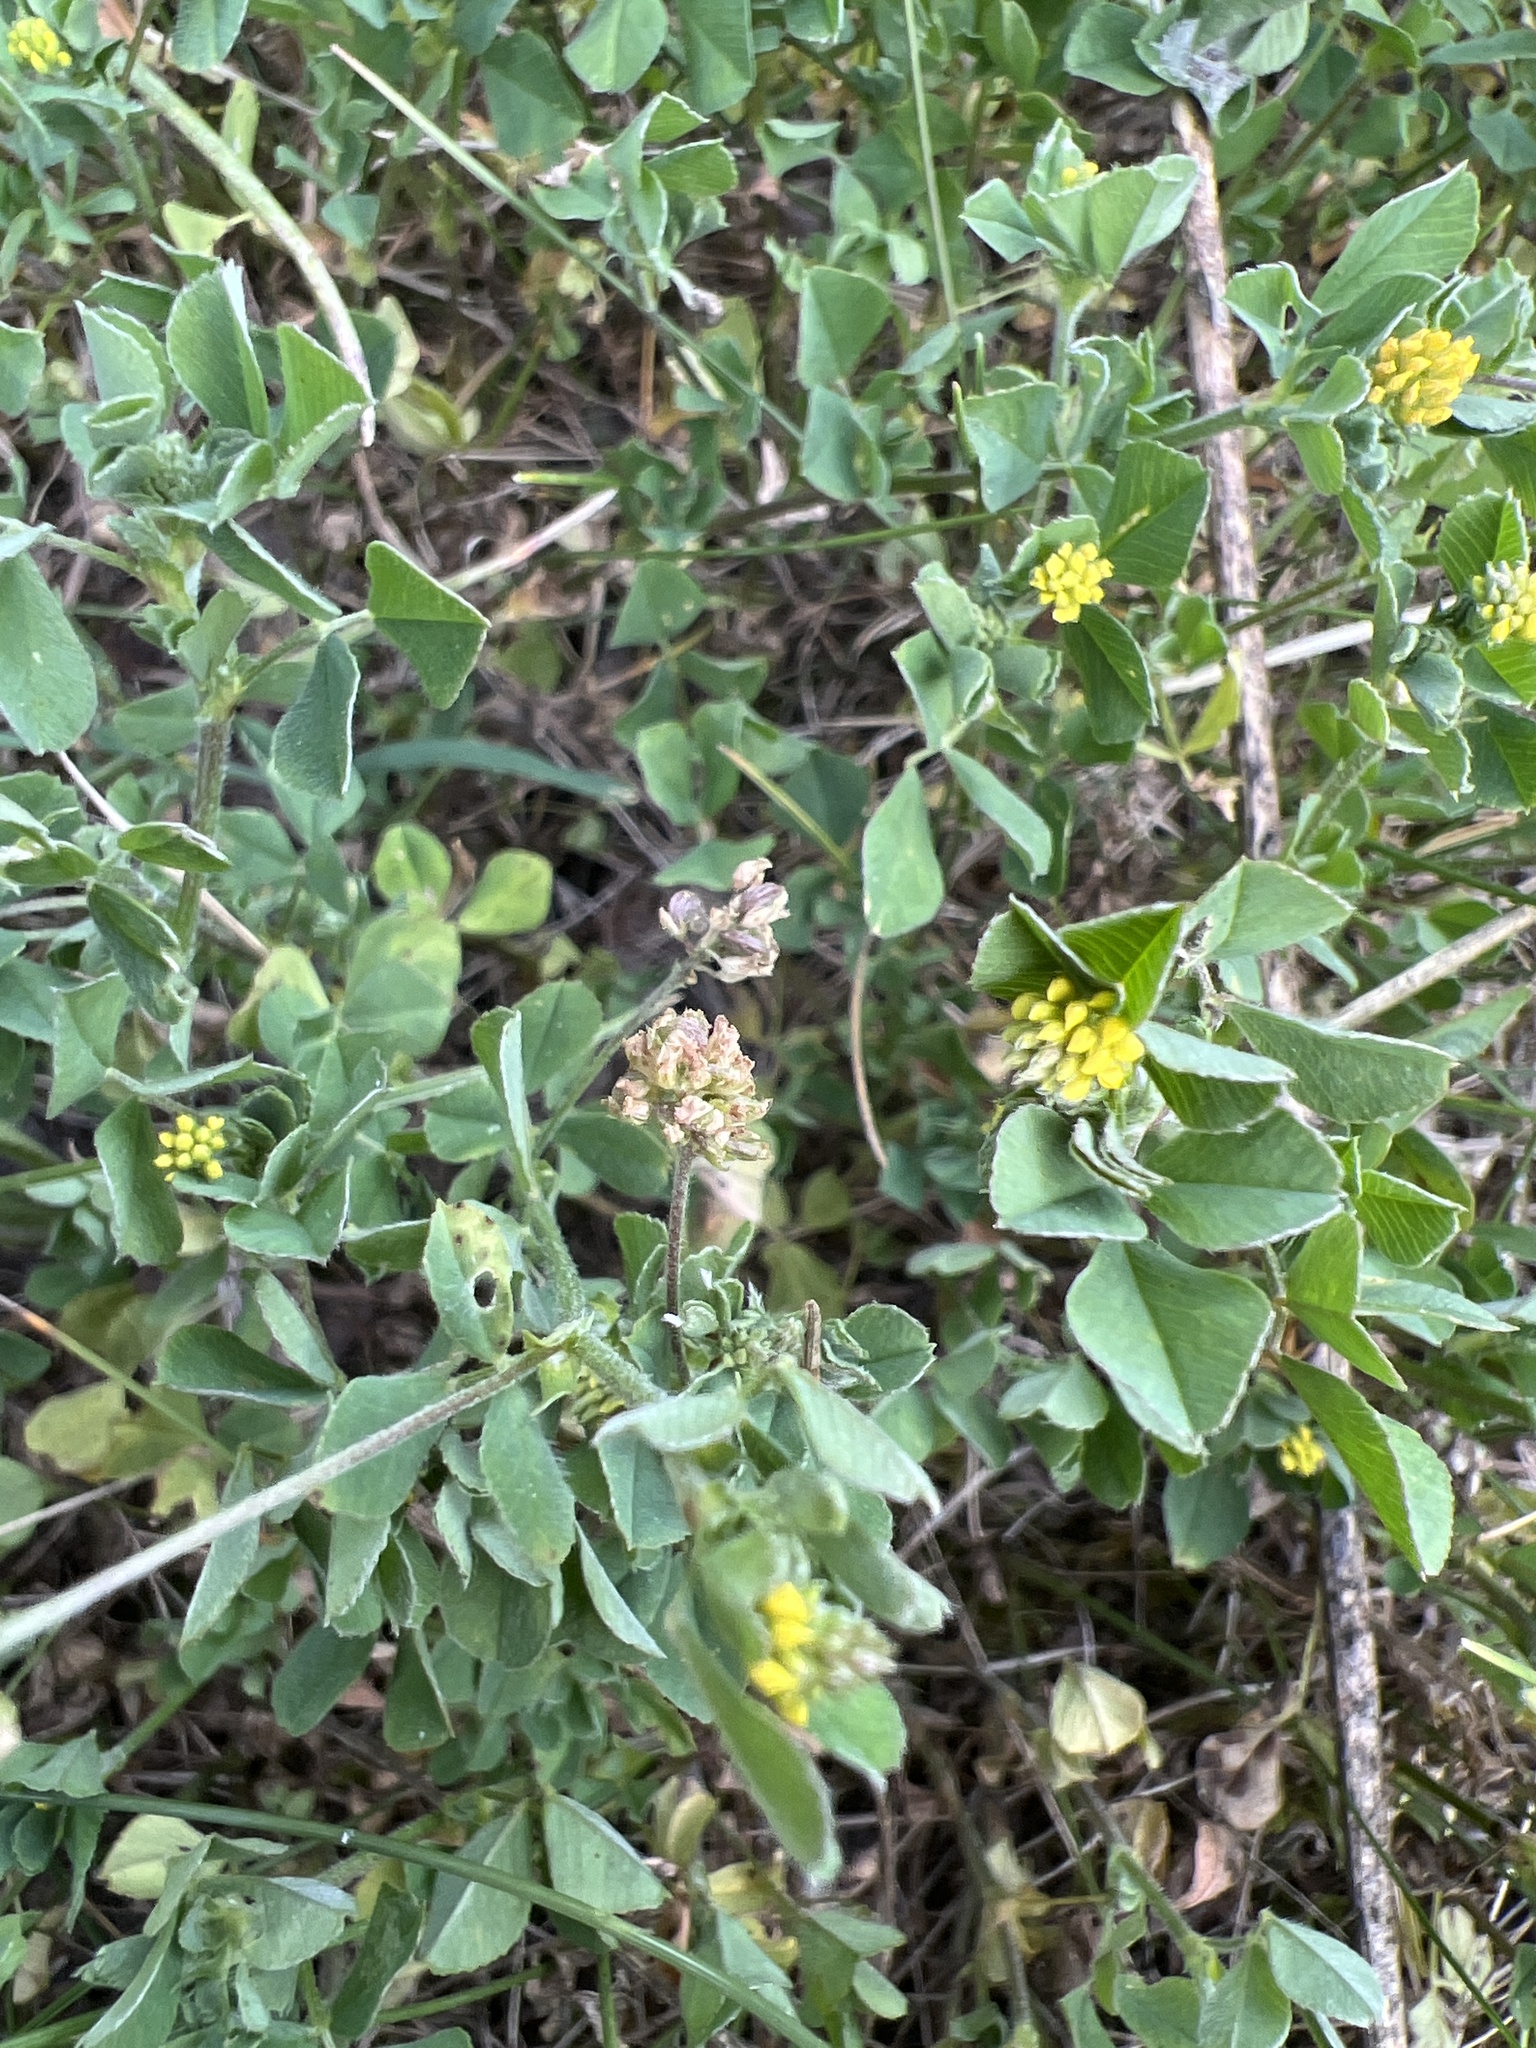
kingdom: Plantae
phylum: Tracheophyta
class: Magnoliopsida
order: Fabales
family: Fabaceae
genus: Medicago
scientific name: Medicago lupulina
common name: Black medick
